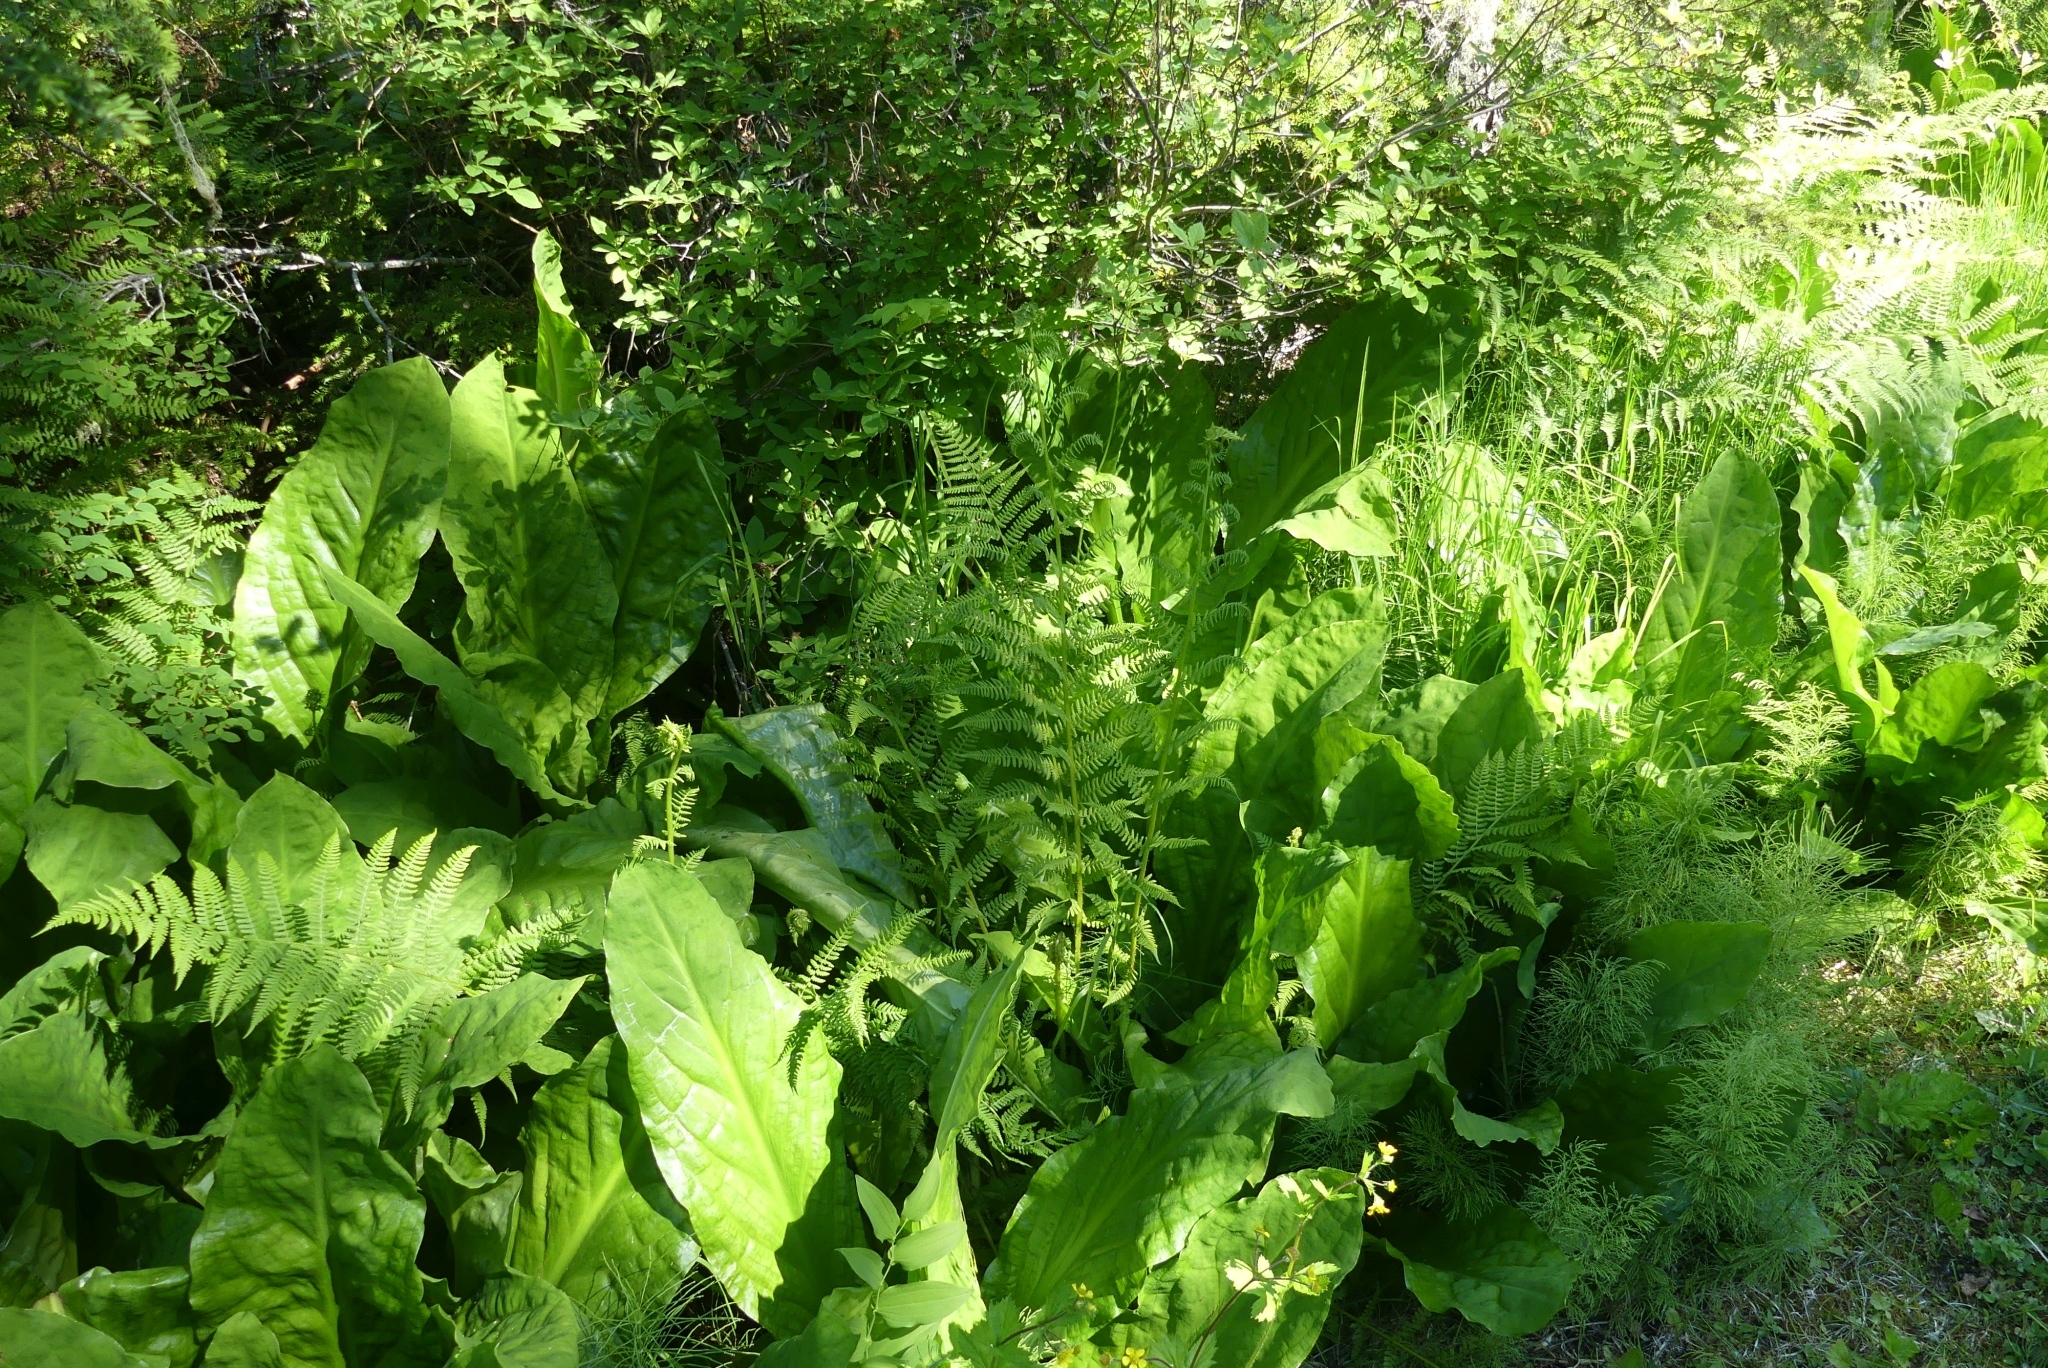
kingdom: Plantae
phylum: Tracheophyta
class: Polypodiopsida
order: Polypodiales
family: Athyriaceae
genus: Athyrium
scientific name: Athyrium cyclosorum
